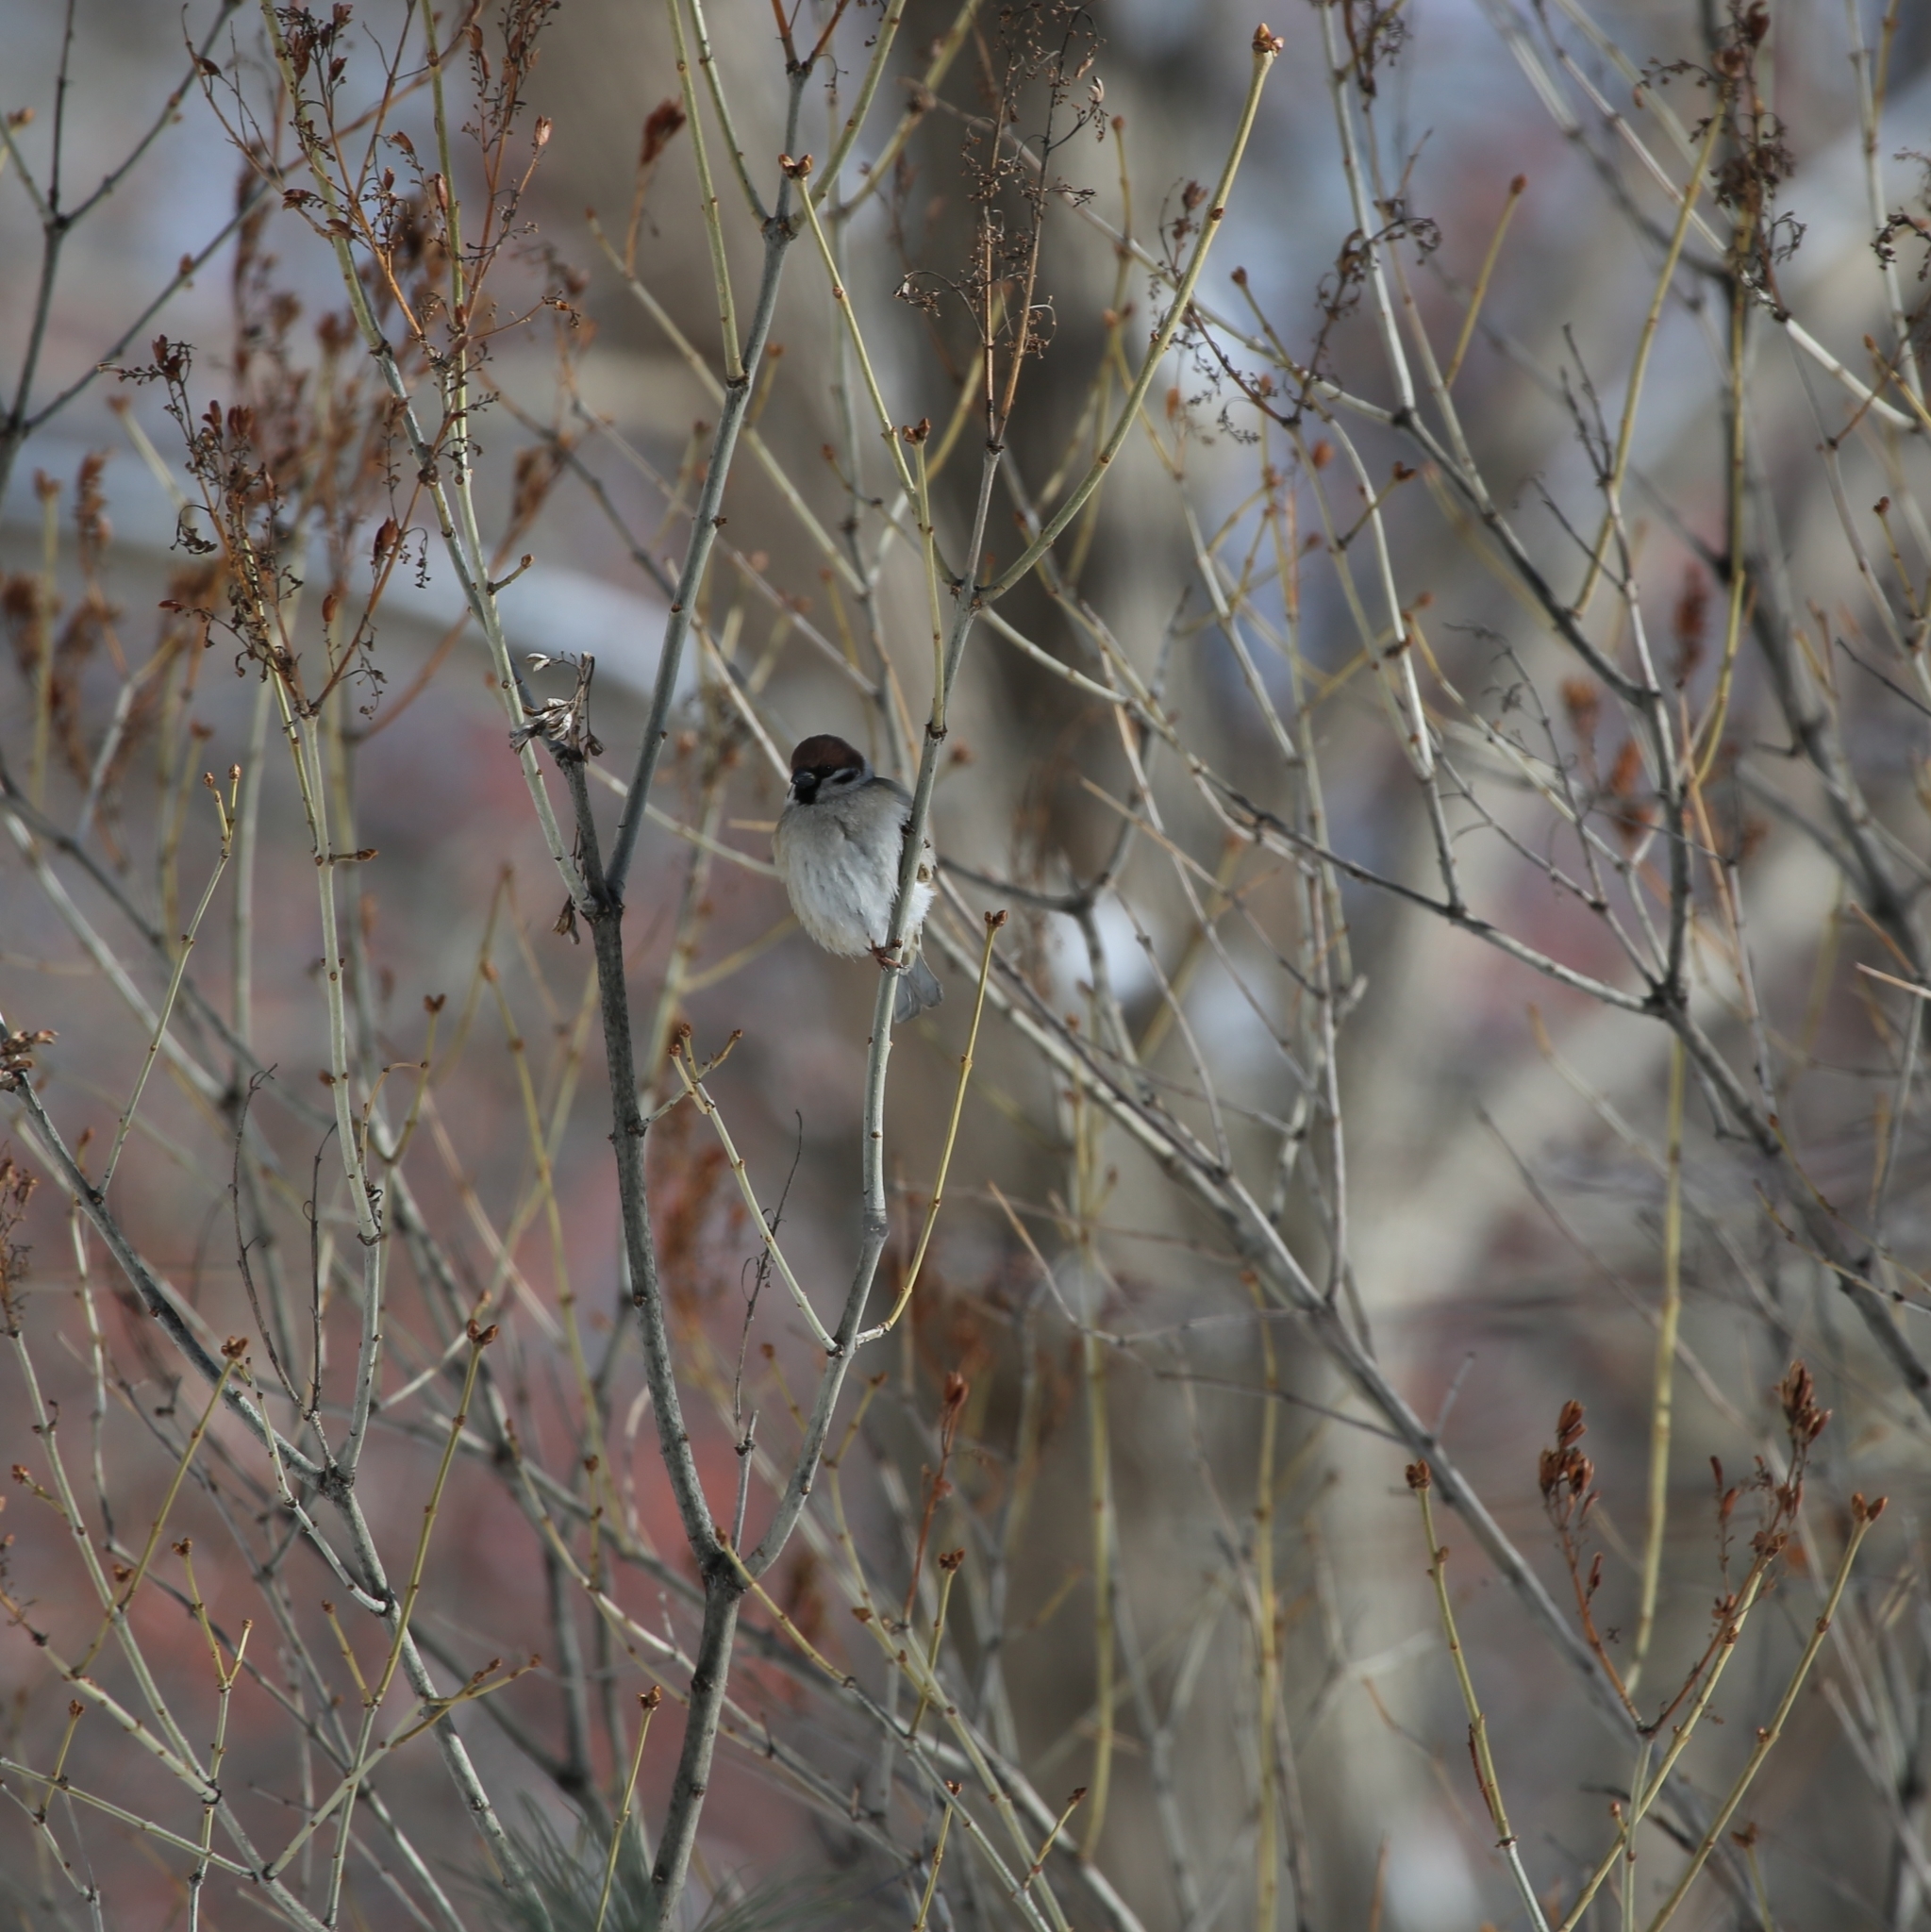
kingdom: Animalia
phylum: Chordata
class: Aves
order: Passeriformes
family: Passeridae
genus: Passer
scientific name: Passer montanus
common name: Eurasian tree sparrow
